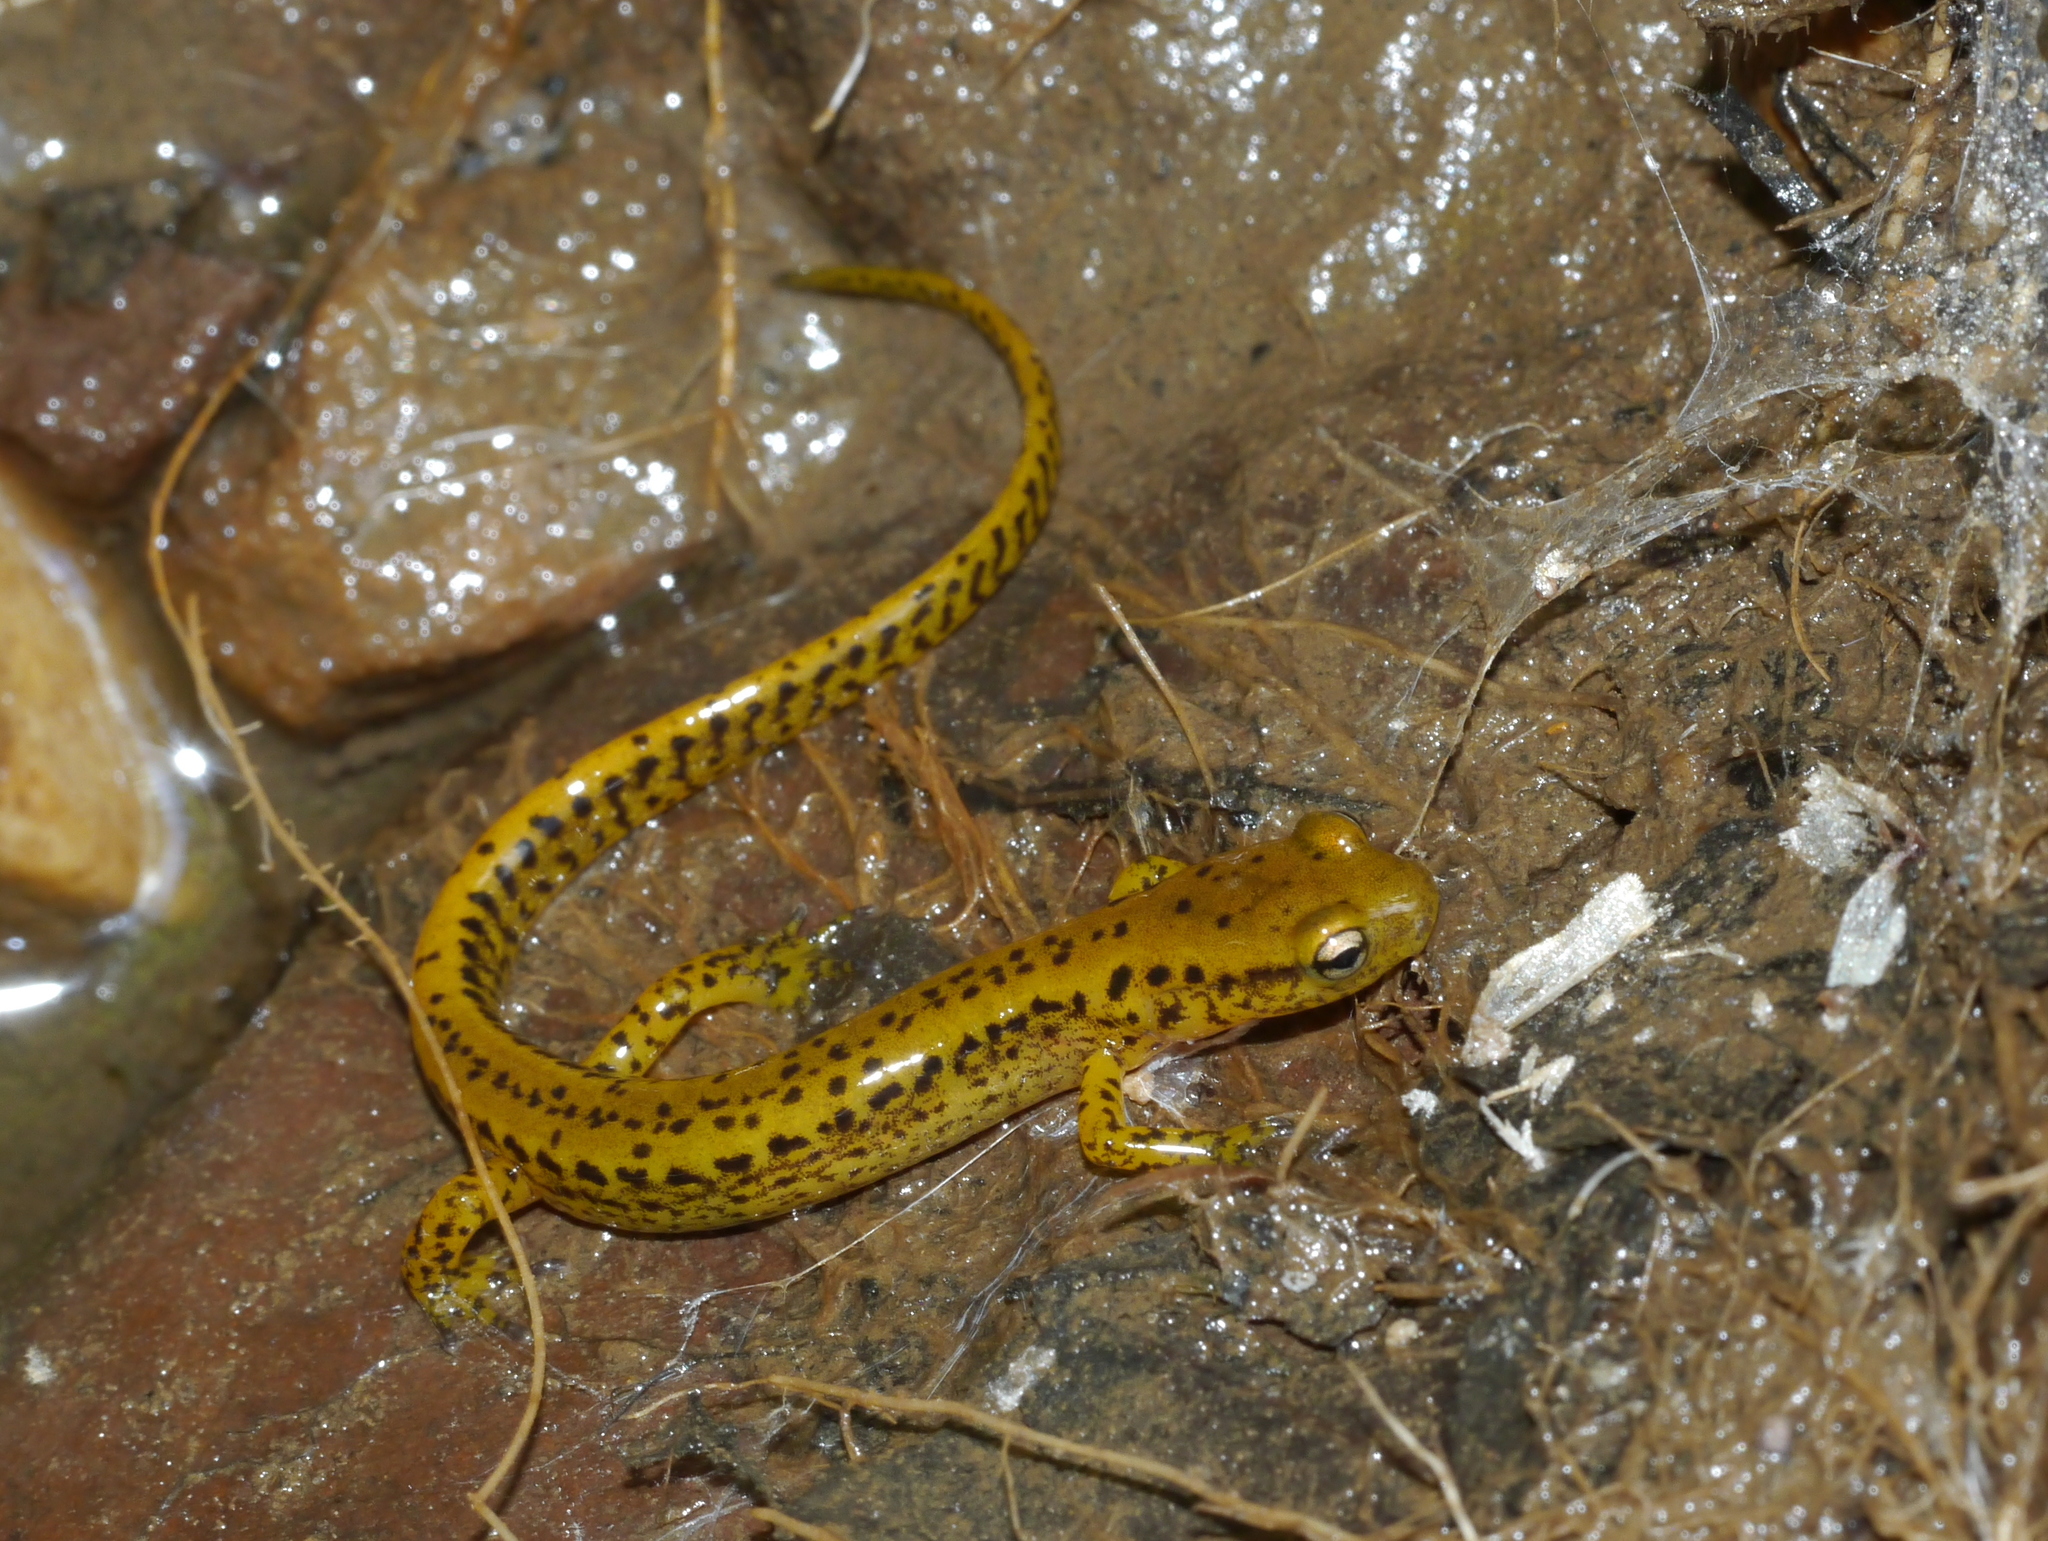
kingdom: Animalia
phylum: Chordata
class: Amphibia
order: Caudata
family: Plethodontidae
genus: Eurycea
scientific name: Eurycea longicauda
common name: Long-tailed salamander
